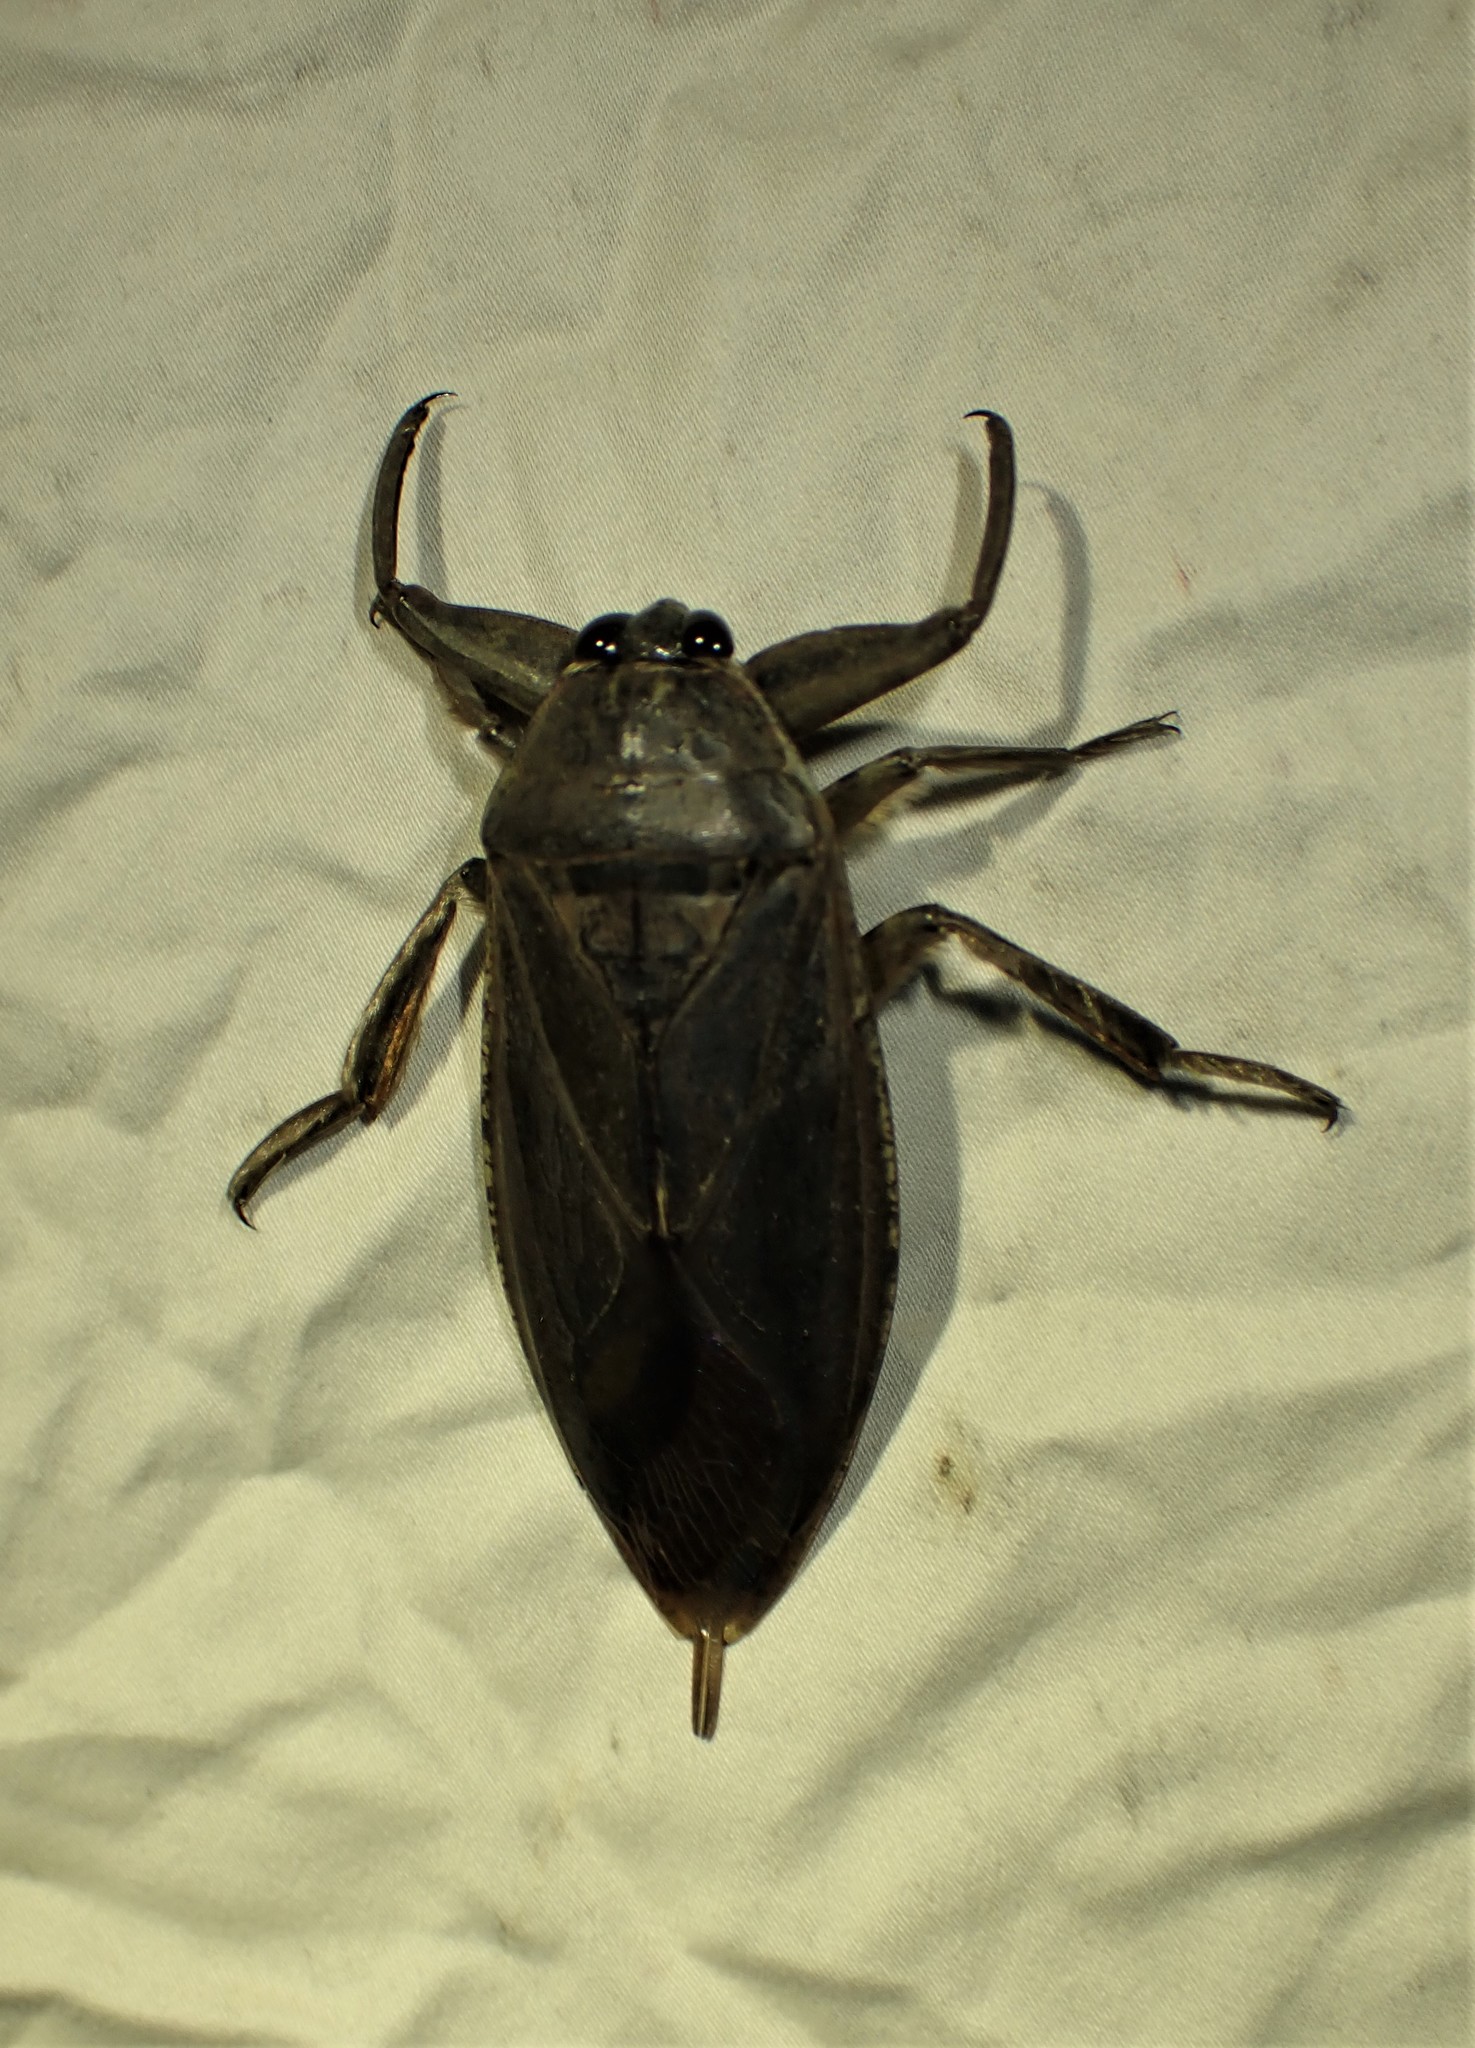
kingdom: Animalia
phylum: Arthropoda
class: Insecta
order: Hemiptera
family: Belostomatidae
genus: Lethocerus
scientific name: Lethocerus americanus
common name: Giant water bug
